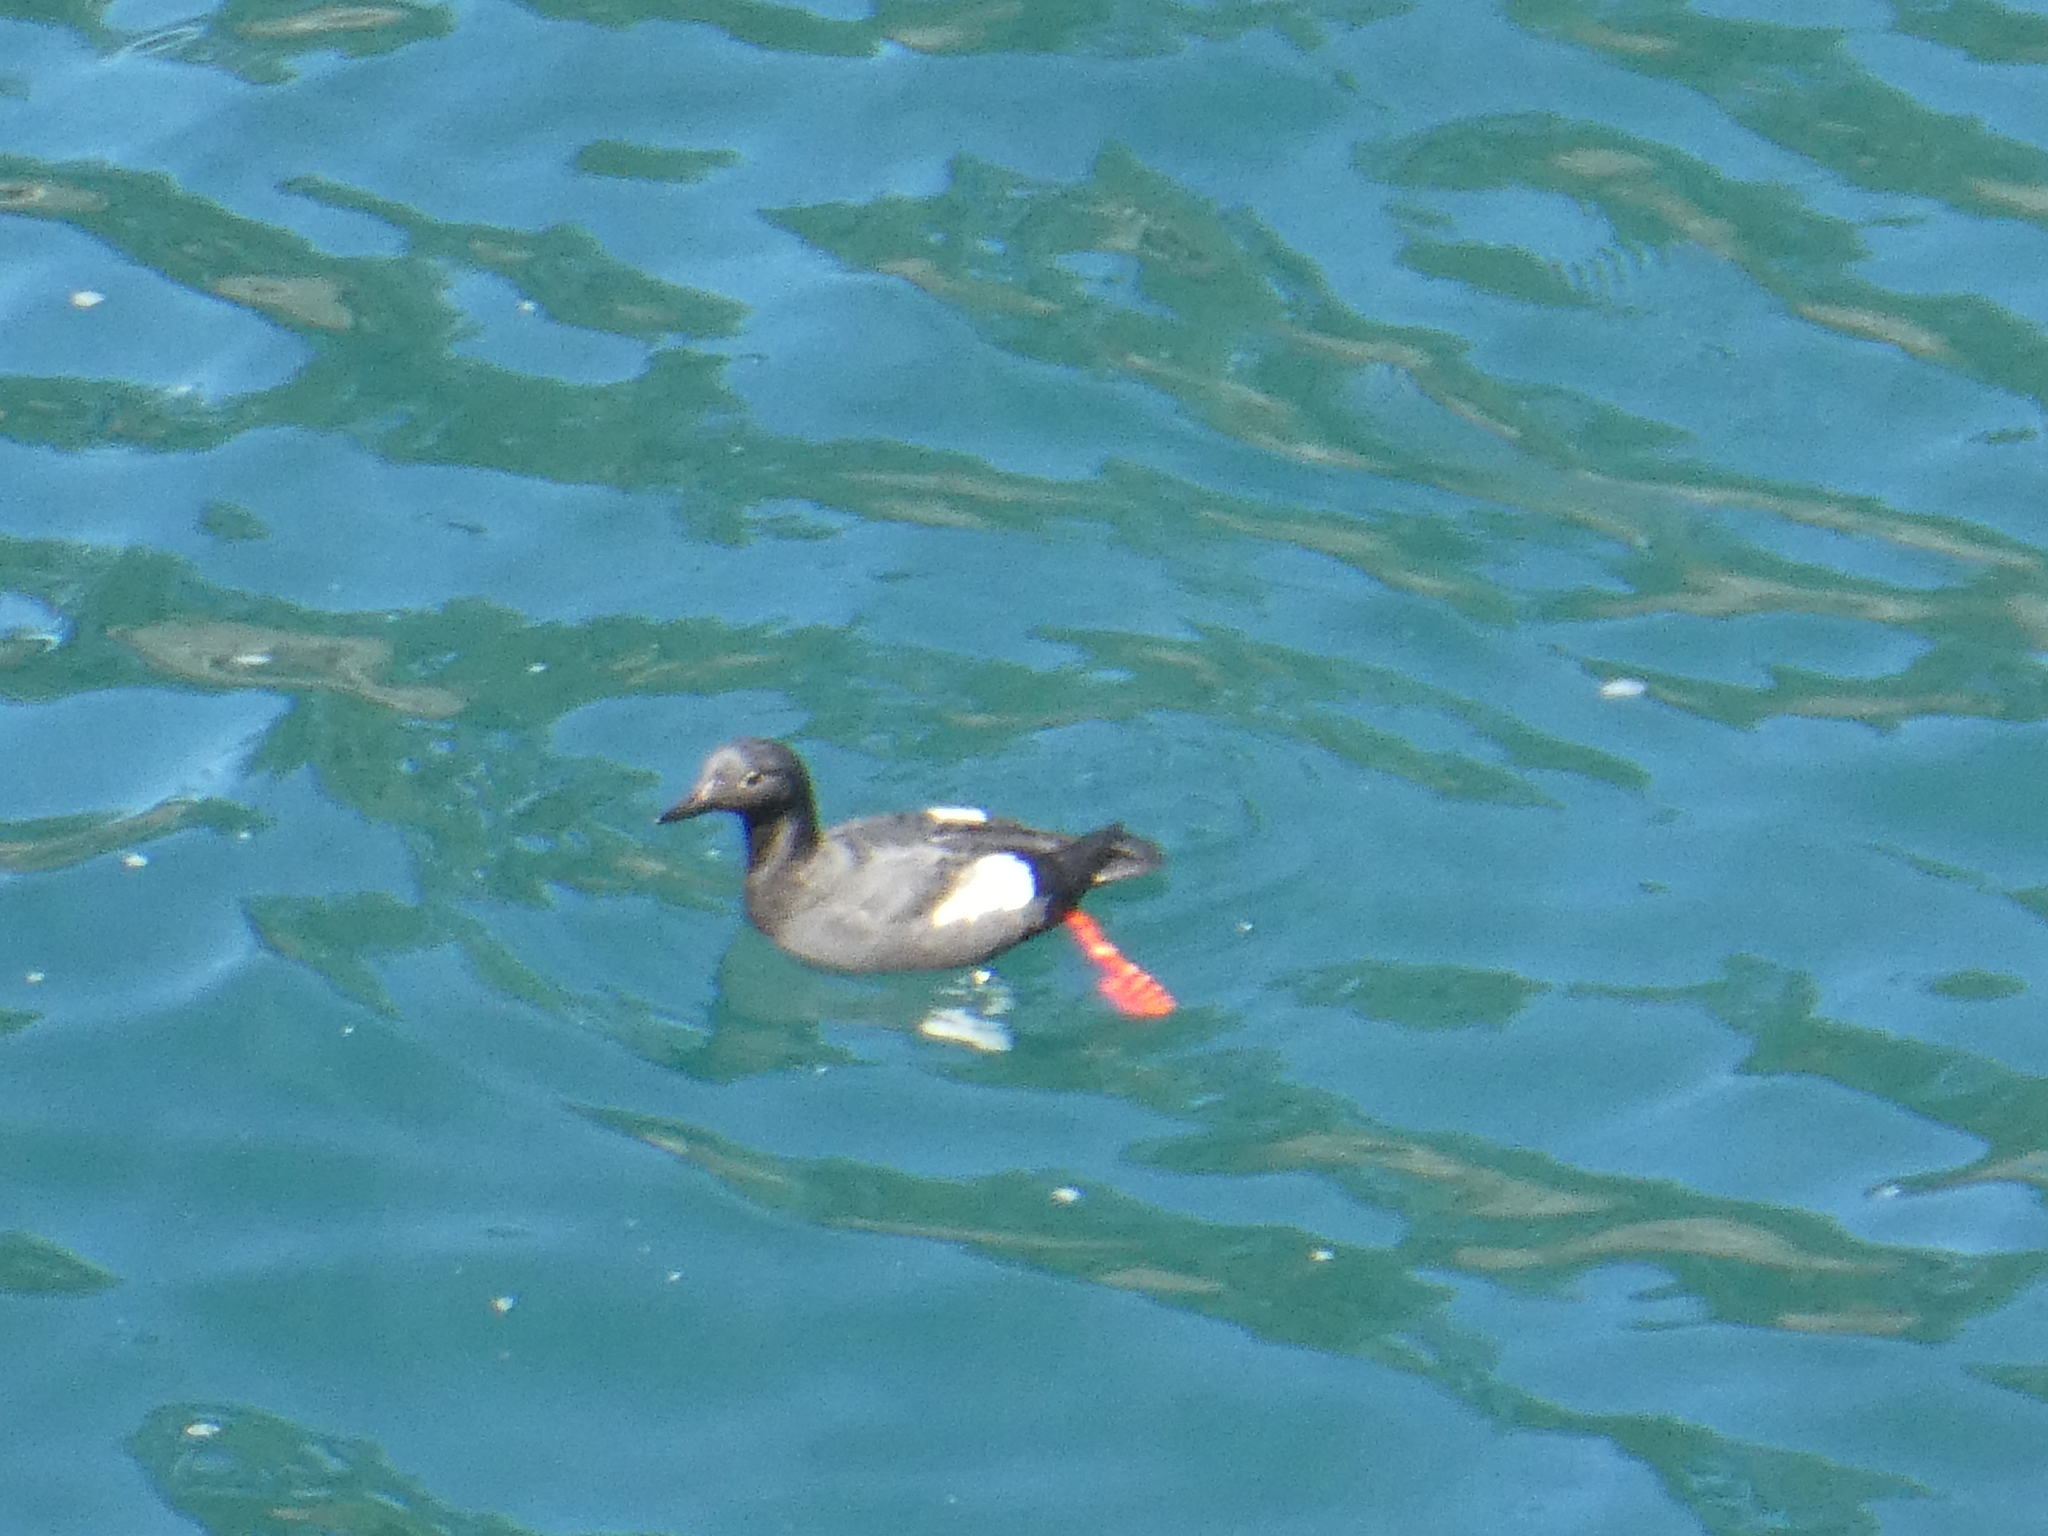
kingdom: Animalia
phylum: Chordata
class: Aves
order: Charadriiformes
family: Alcidae
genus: Cepphus
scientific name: Cepphus columba
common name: Pigeon guillemot
